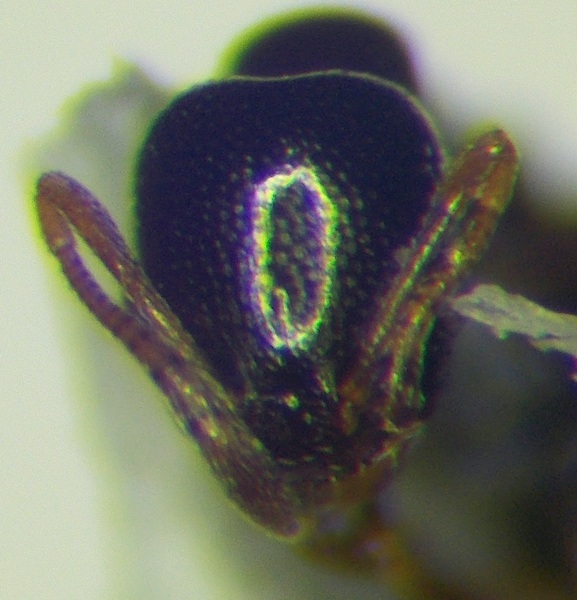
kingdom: Animalia
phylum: Arthropoda
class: Insecta
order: Hymenoptera
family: Formicidae
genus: Cardiocondyla
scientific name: Cardiocondyla ulianini
